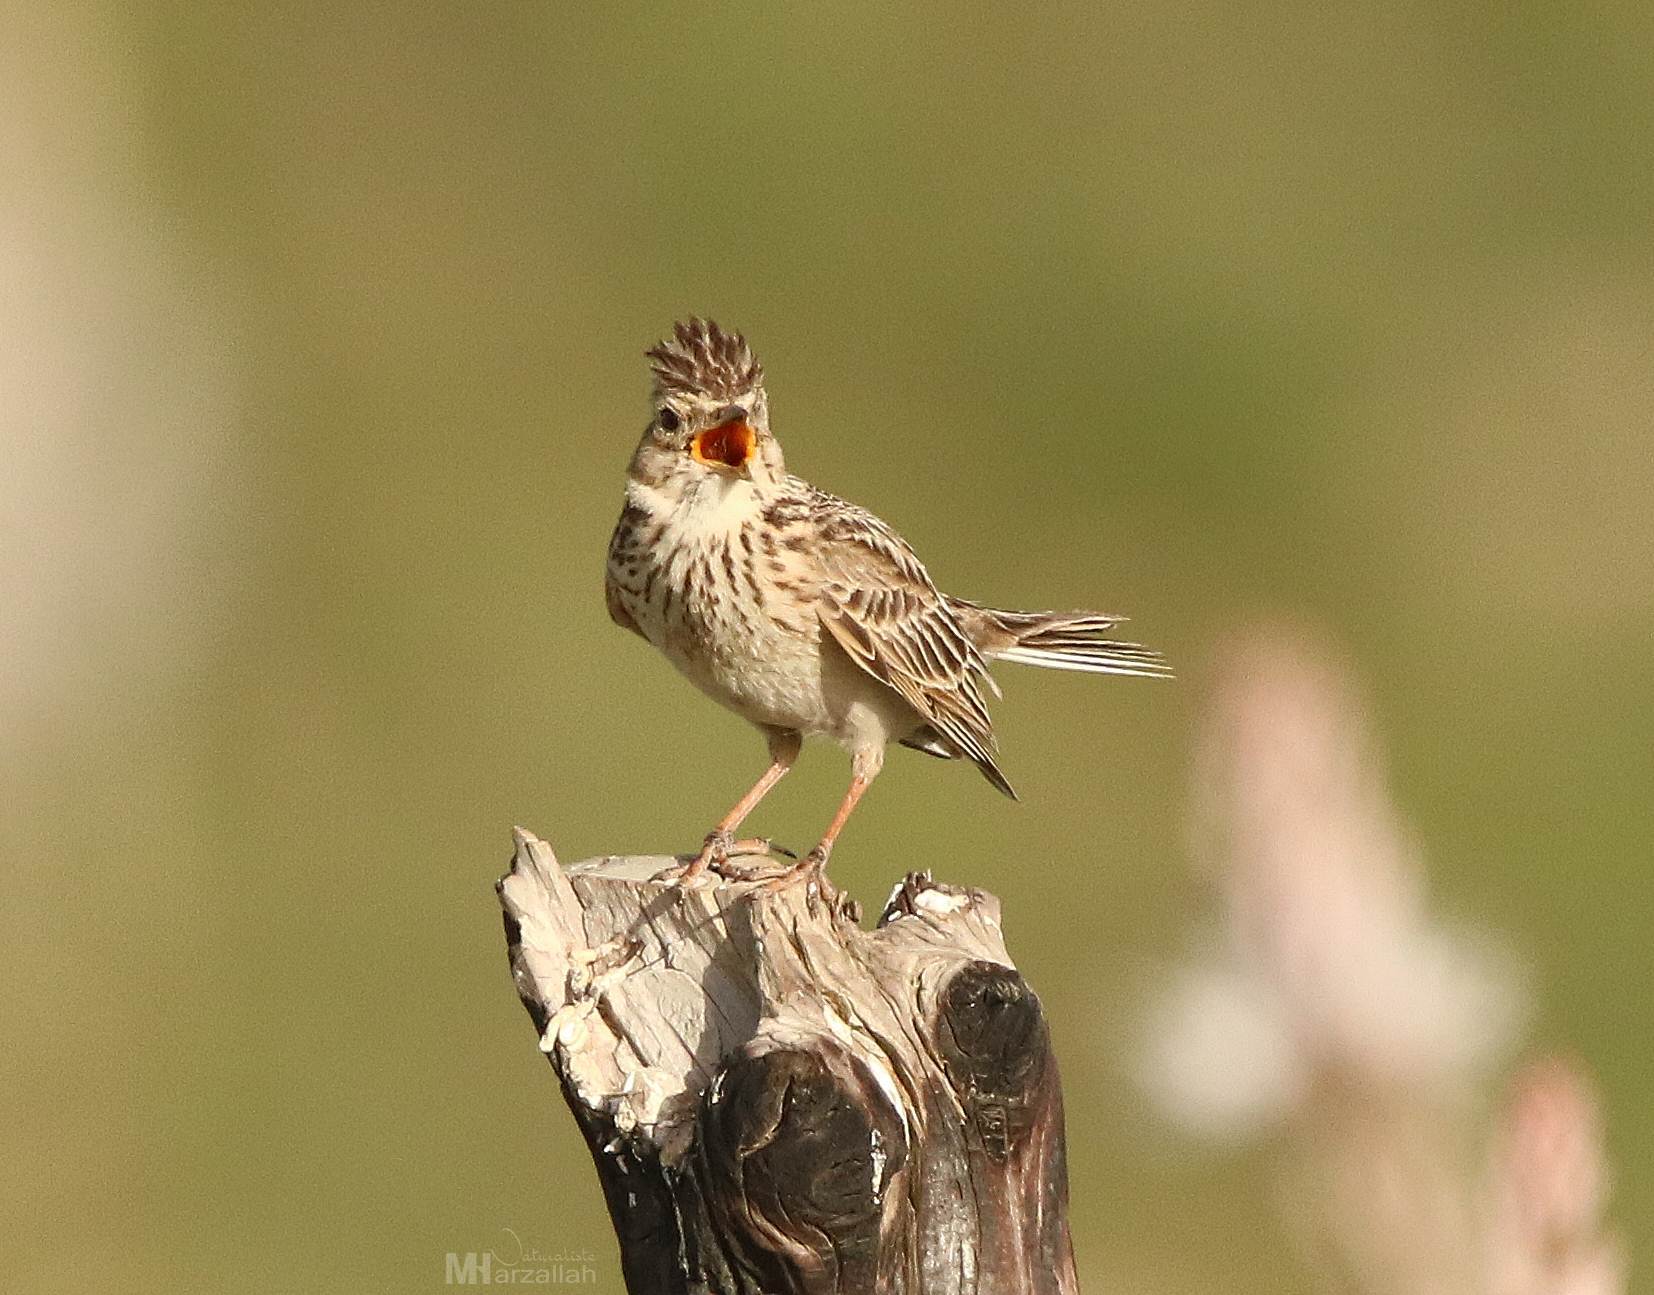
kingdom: Animalia
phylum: Chordata
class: Aves
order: Passeriformes
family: Alaudidae
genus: Alauda
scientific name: Alauda arvensis
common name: Eurasian skylark
